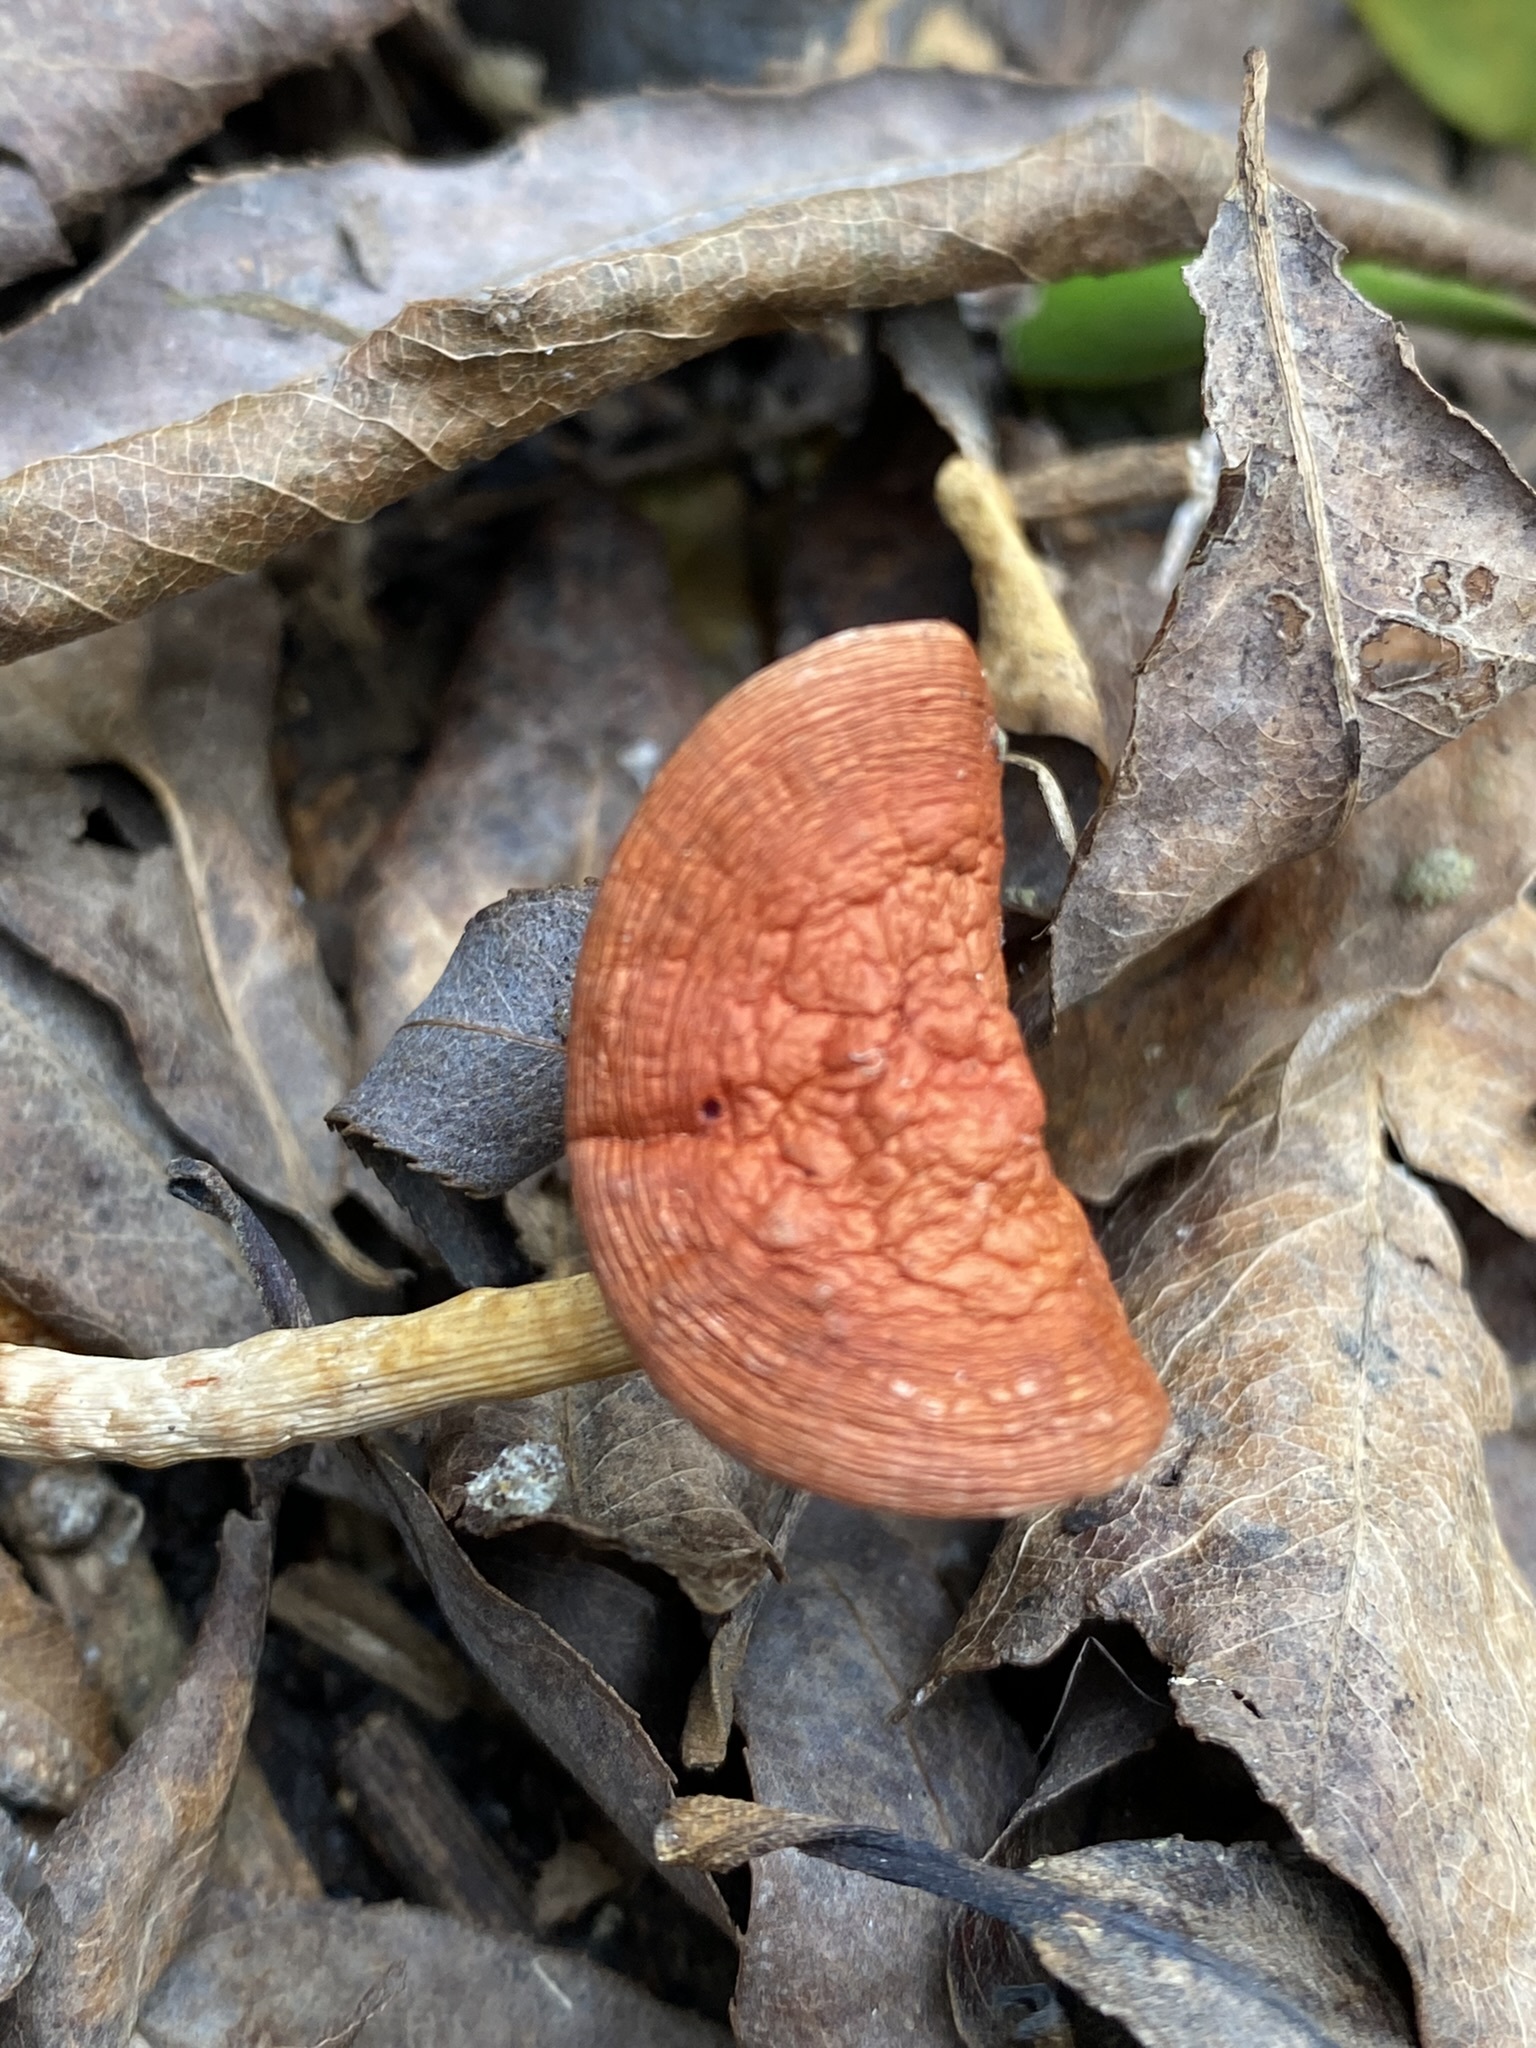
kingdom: Fungi
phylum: Basidiomycota
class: Agaricomycetes
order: Agaricales
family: Strophariaceae
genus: Leratiomyces
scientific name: Leratiomyces ceres
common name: Redlead roundhead
